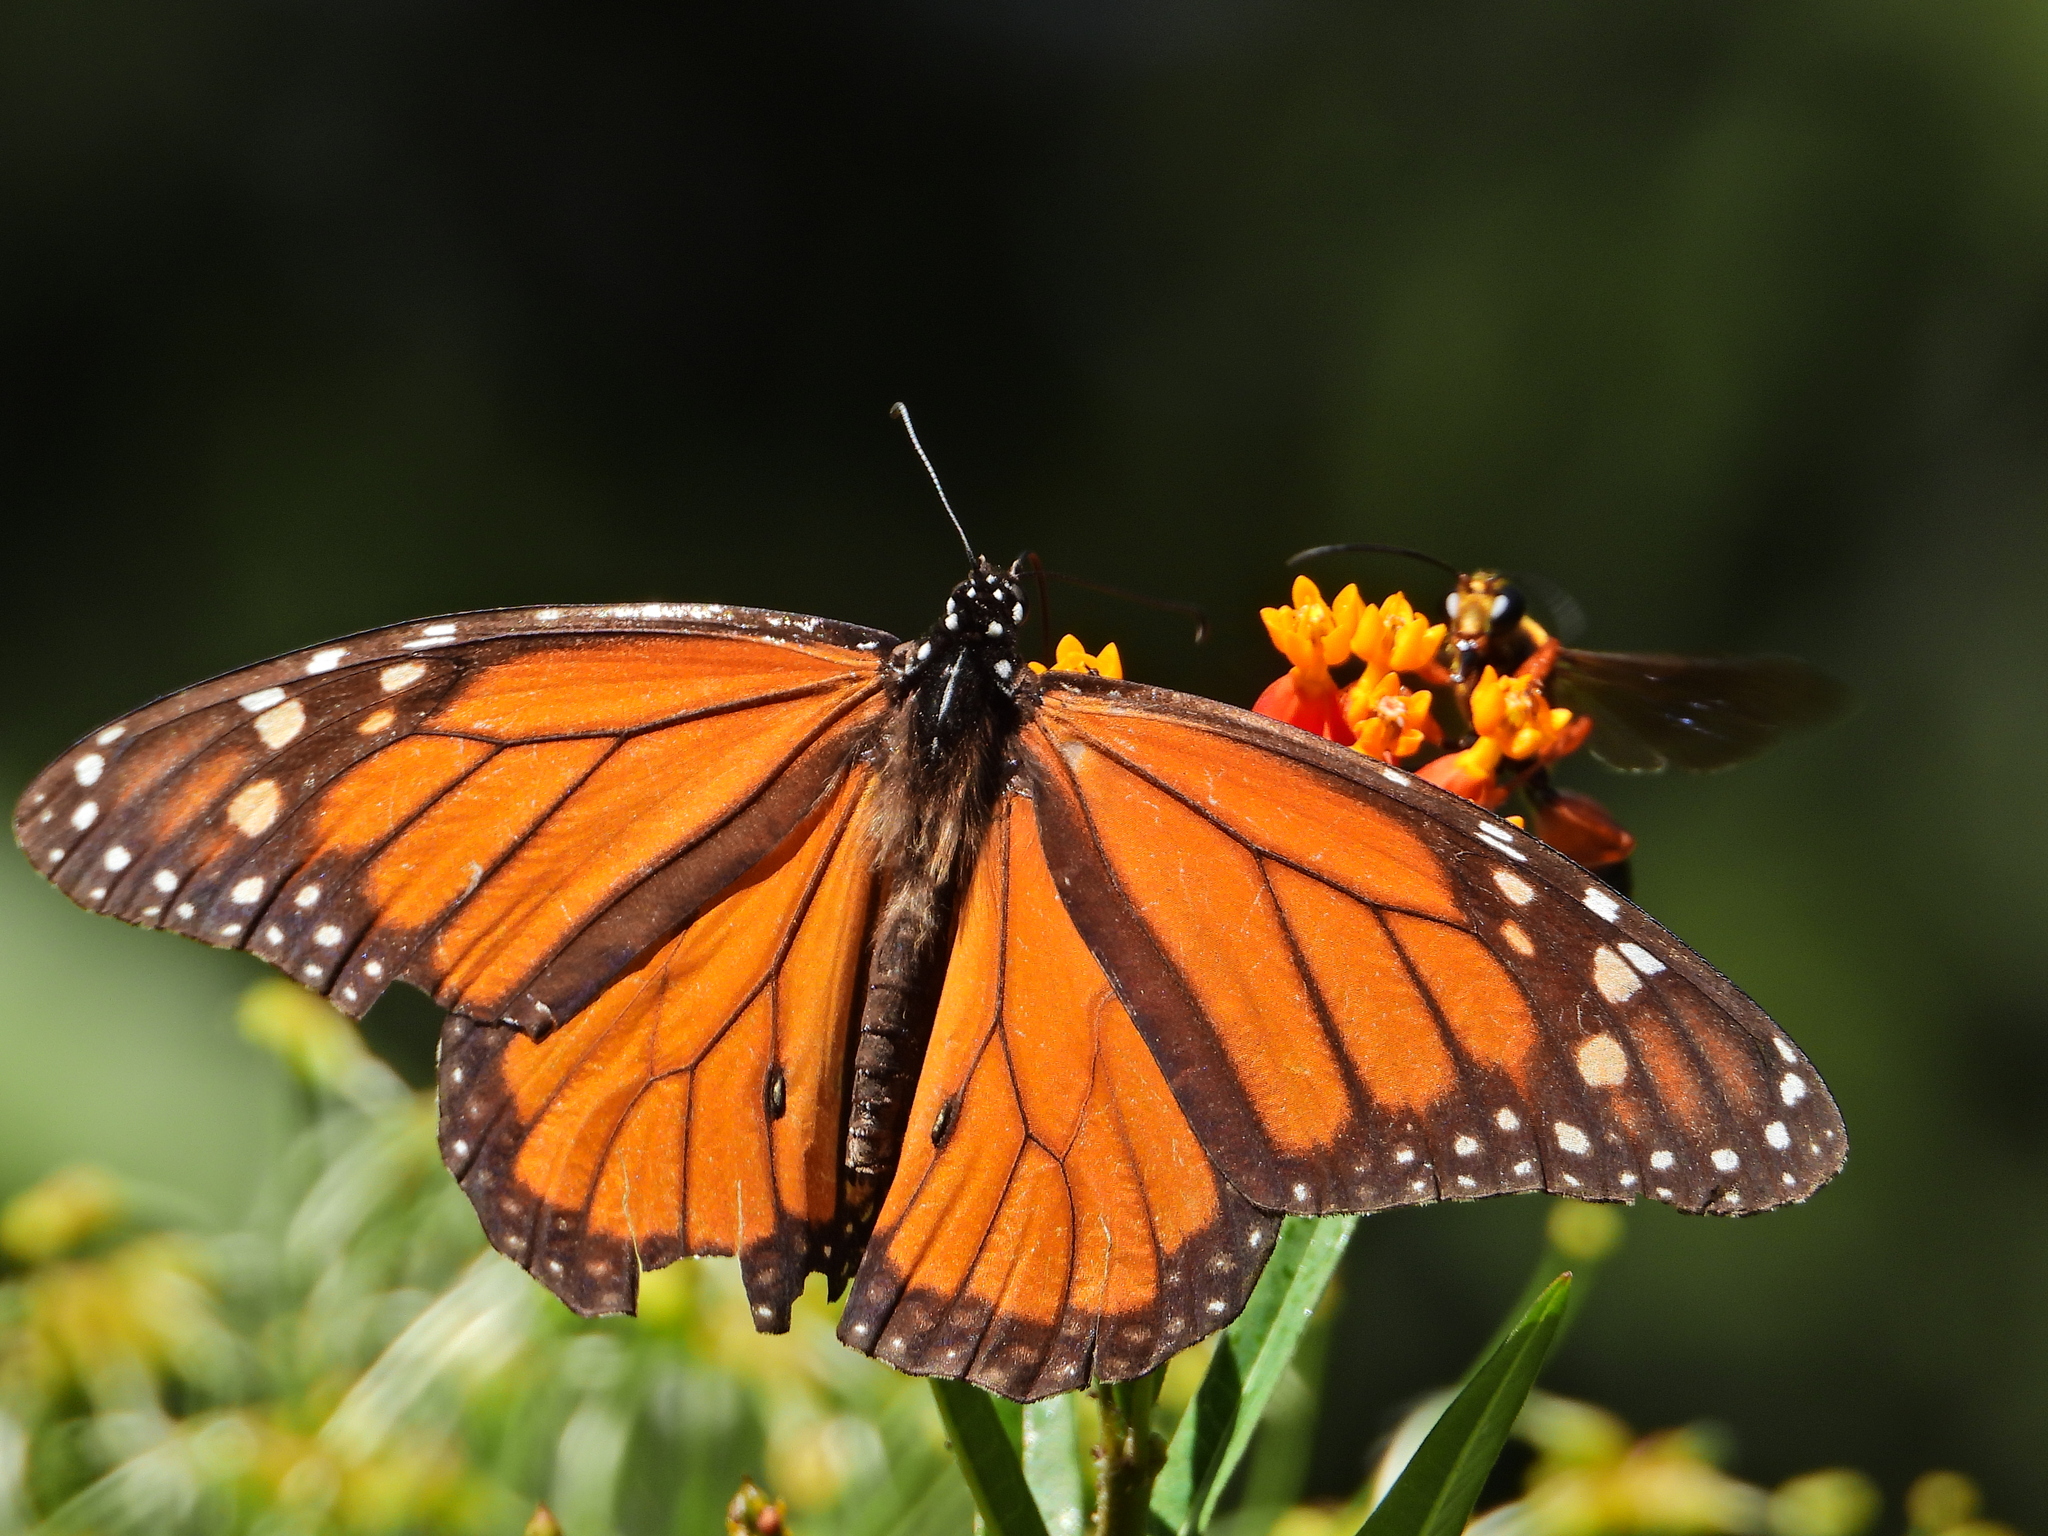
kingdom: Animalia
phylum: Arthropoda
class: Insecta
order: Lepidoptera
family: Nymphalidae
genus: Danaus
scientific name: Danaus plexippus
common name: Monarch
